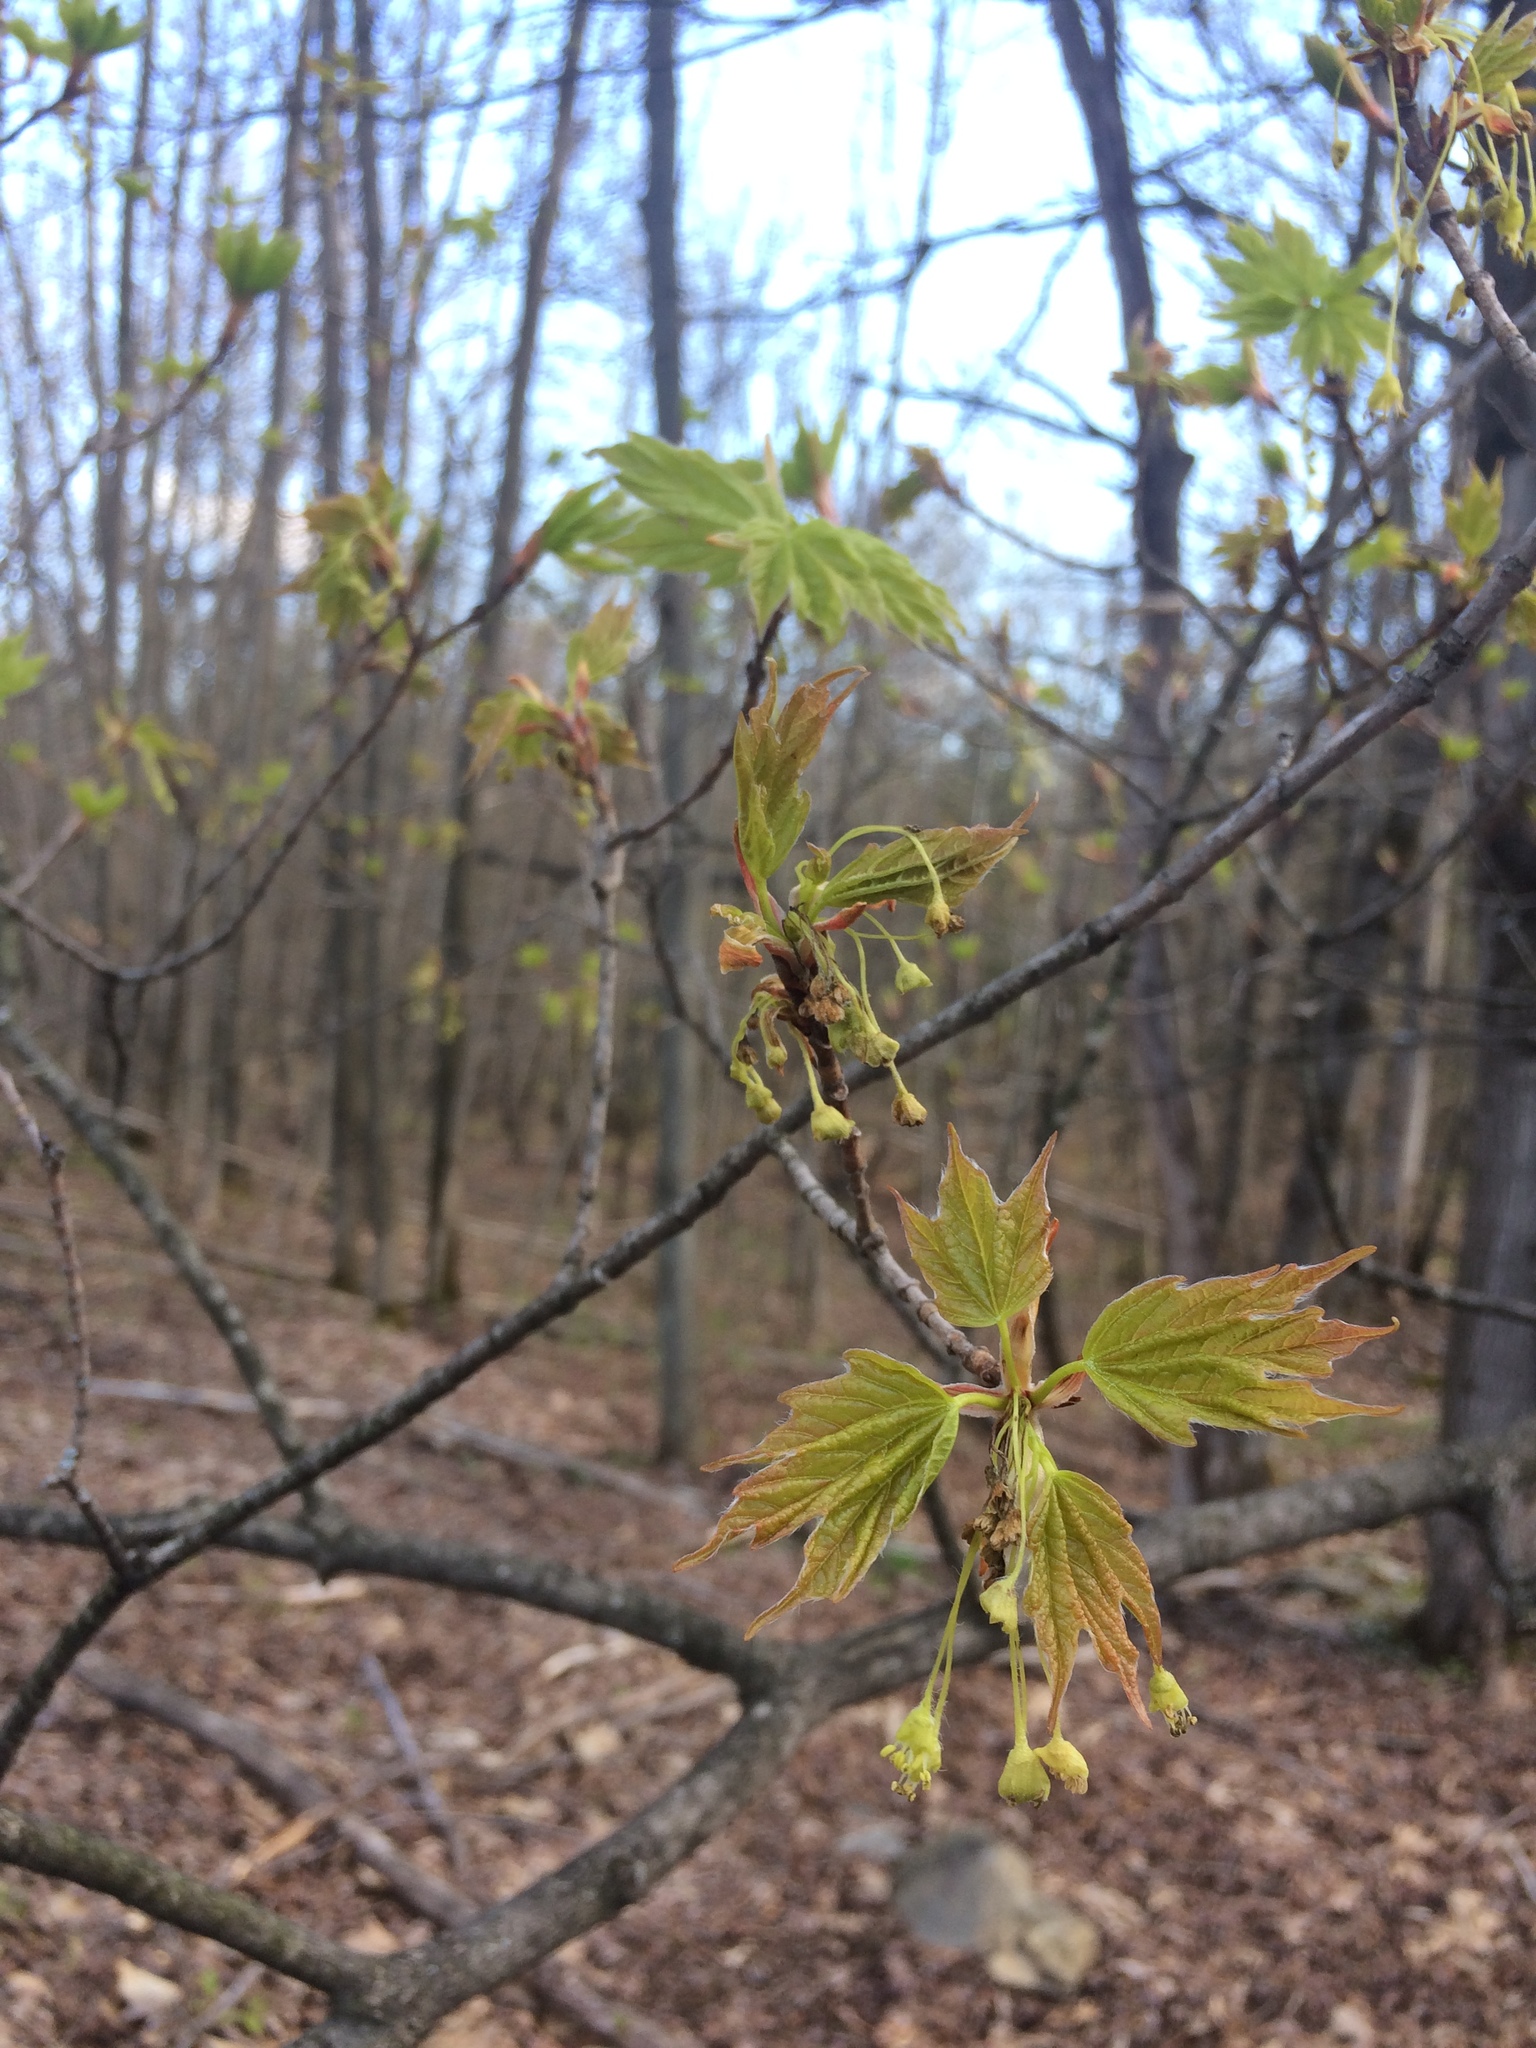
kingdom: Plantae
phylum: Tracheophyta
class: Magnoliopsida
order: Sapindales
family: Sapindaceae
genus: Acer
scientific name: Acer saccharum
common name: Sugar maple
